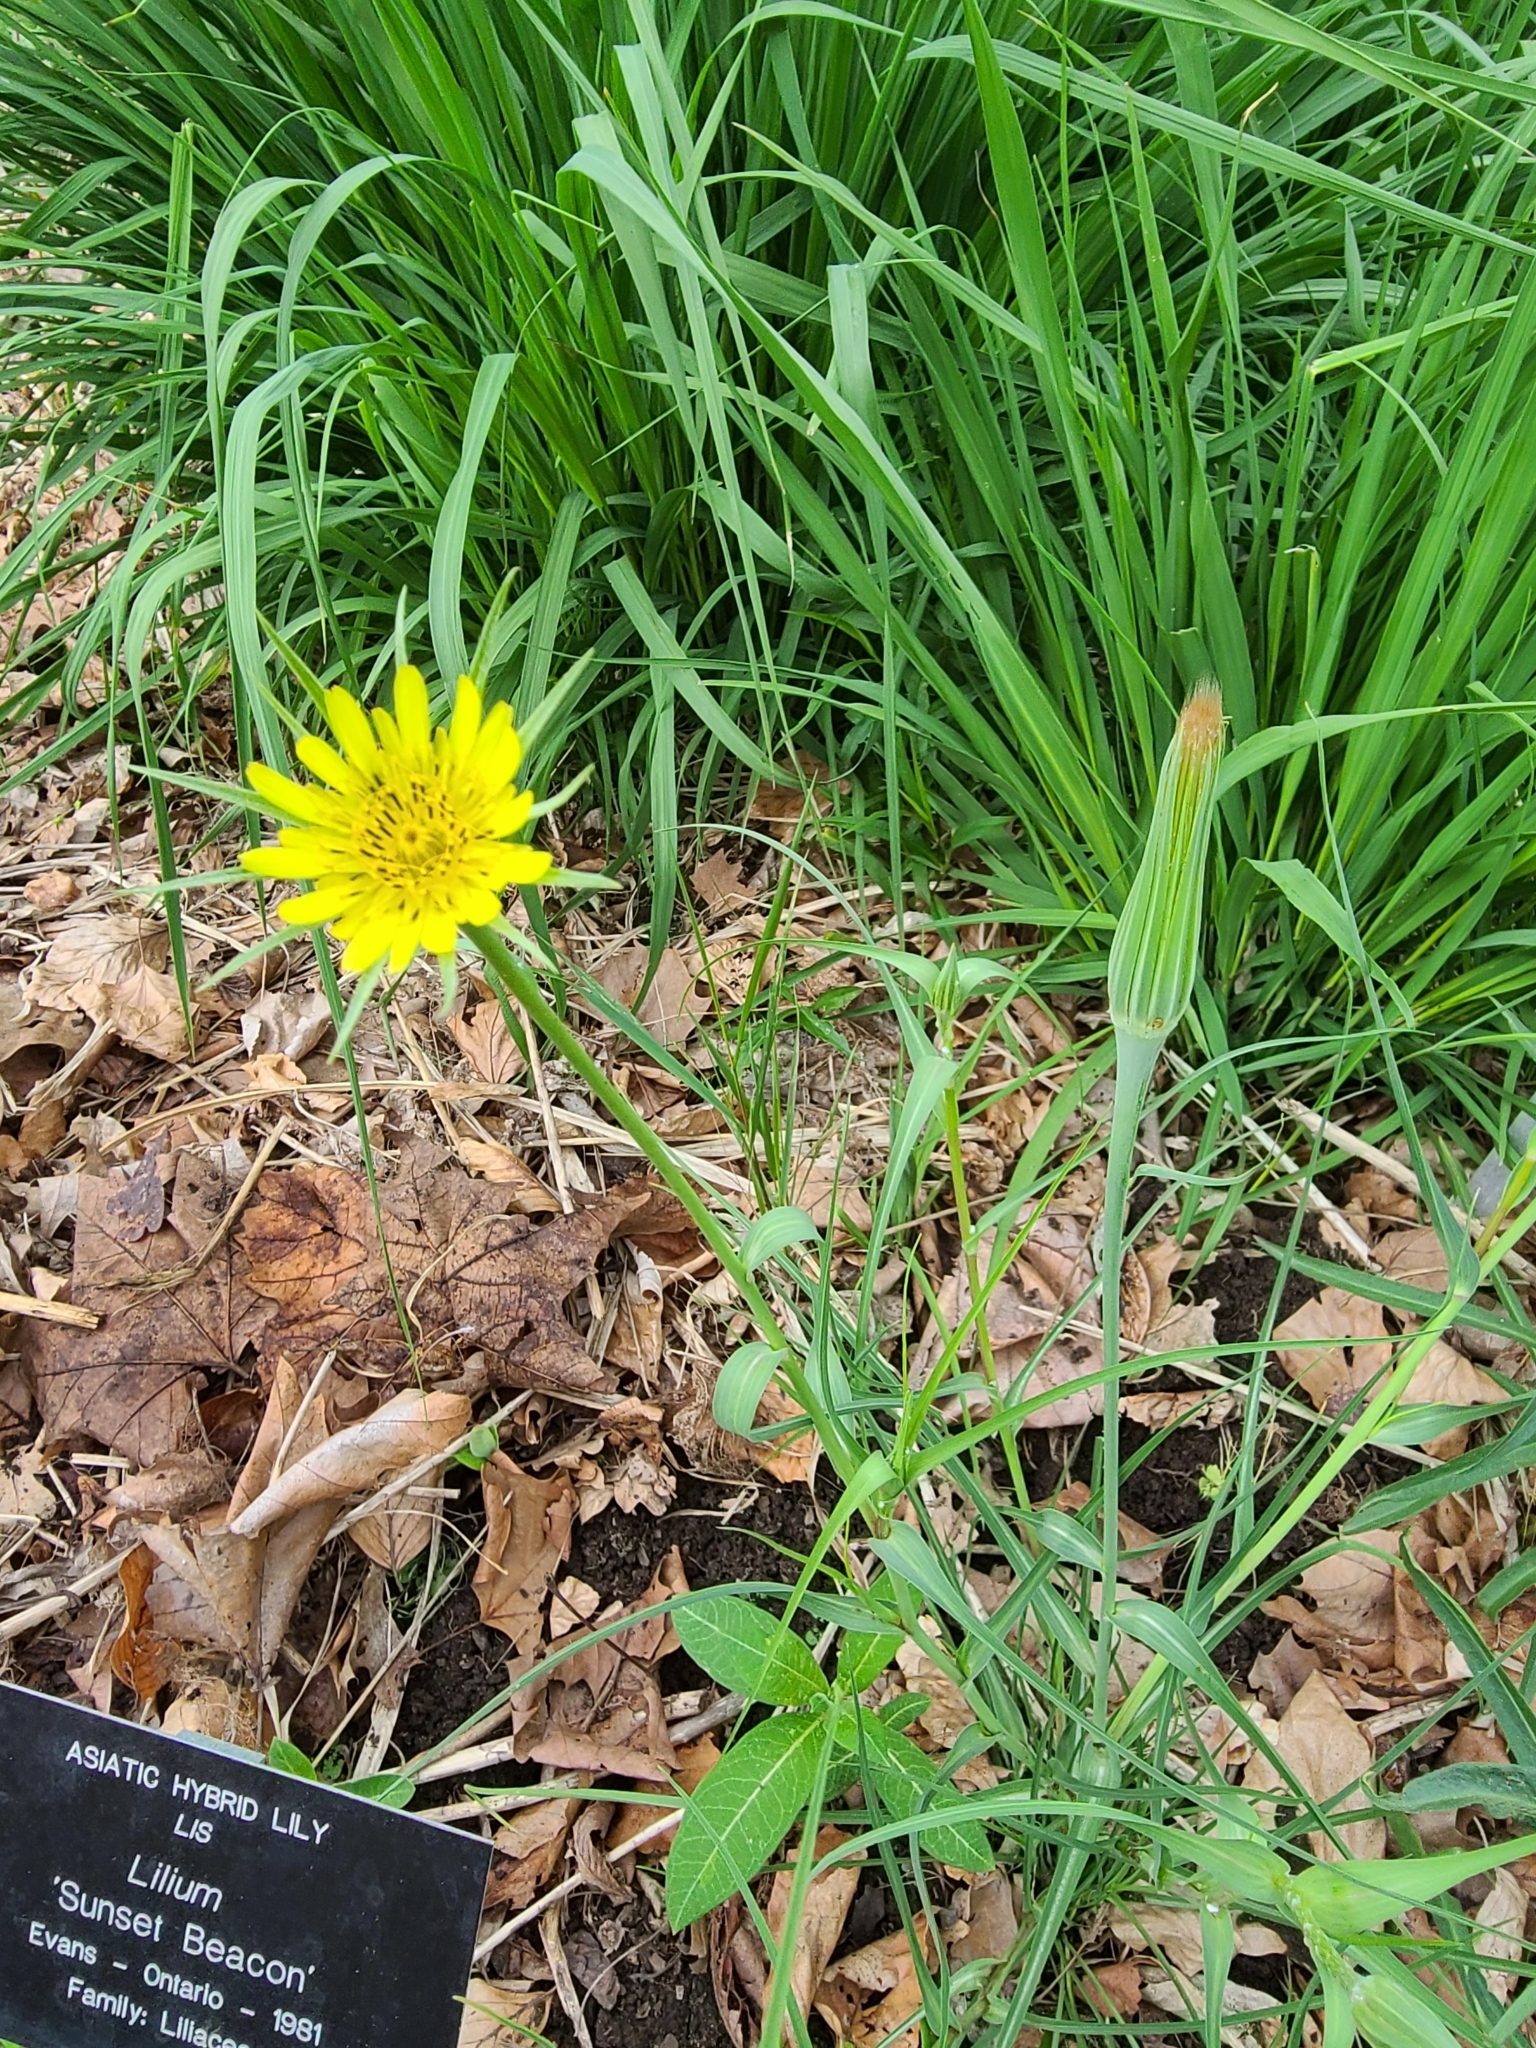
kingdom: Plantae
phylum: Tracheophyta
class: Magnoliopsida
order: Asterales
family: Asteraceae
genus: Tragopogon
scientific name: Tragopogon dubius
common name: Yellow salsify
